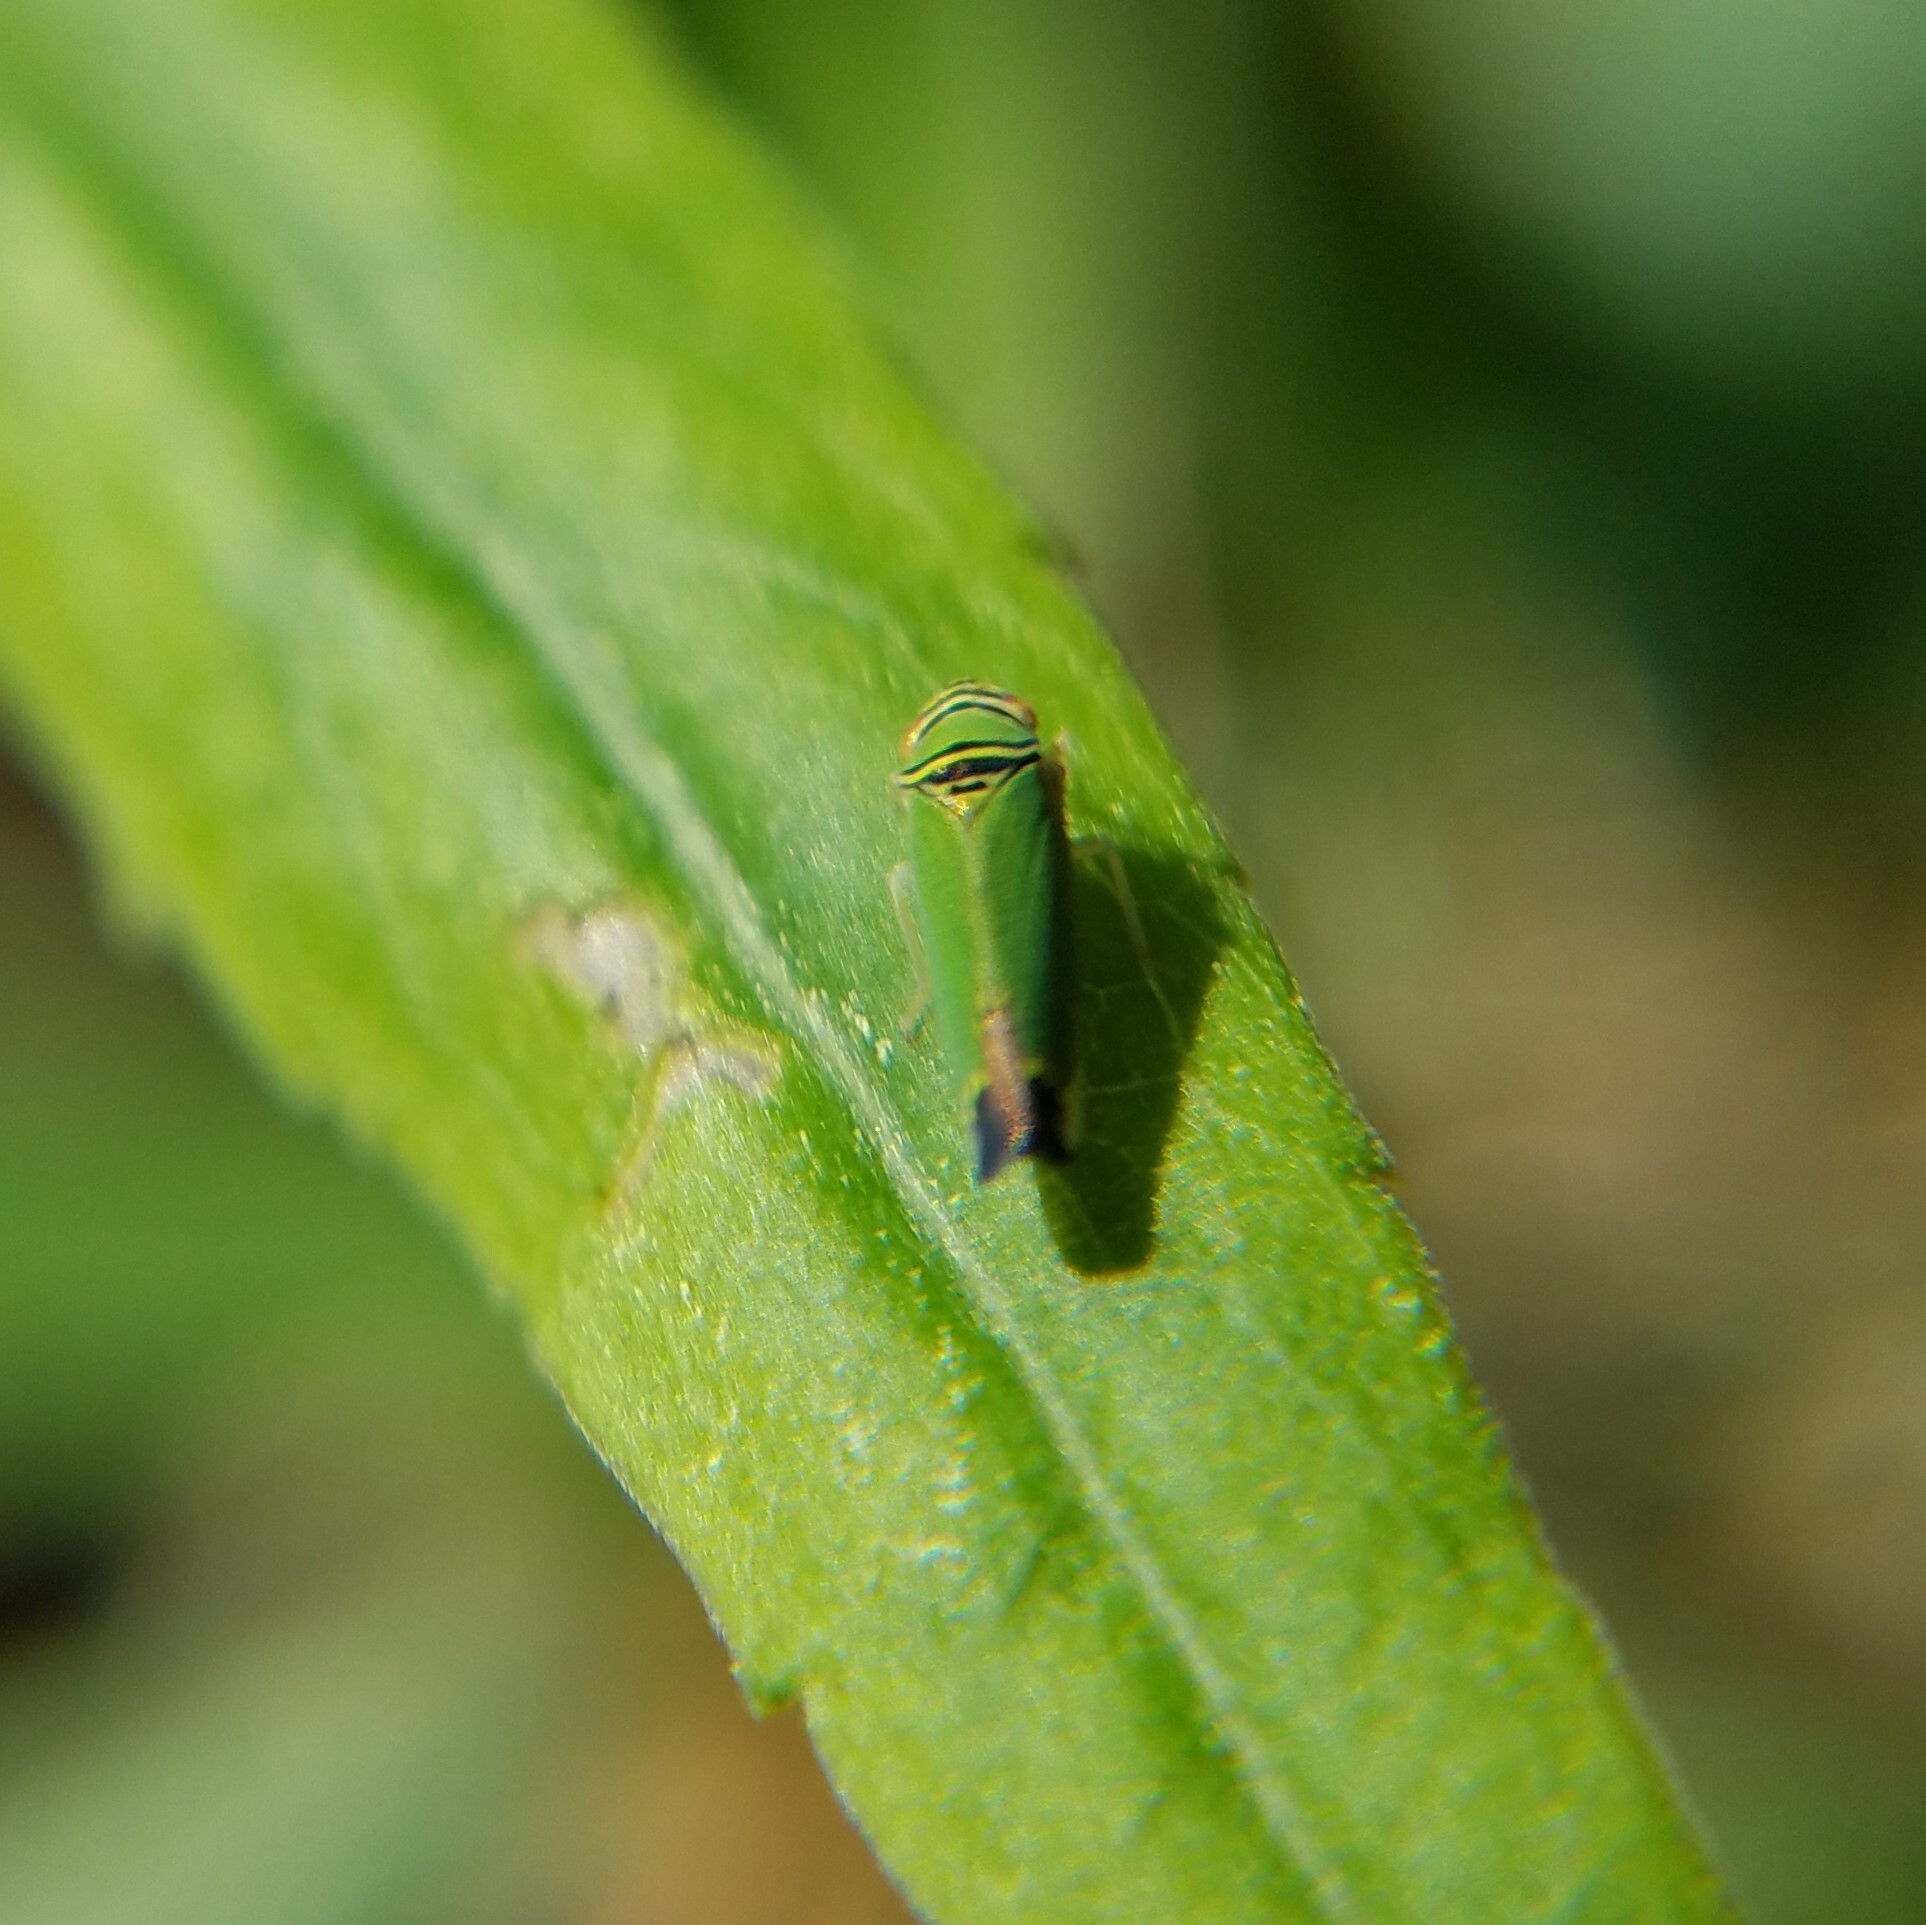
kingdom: Animalia
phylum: Arthropoda
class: Insecta
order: Hemiptera
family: Cicadellidae
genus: Tylozygus
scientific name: Tylozygus geometricus
